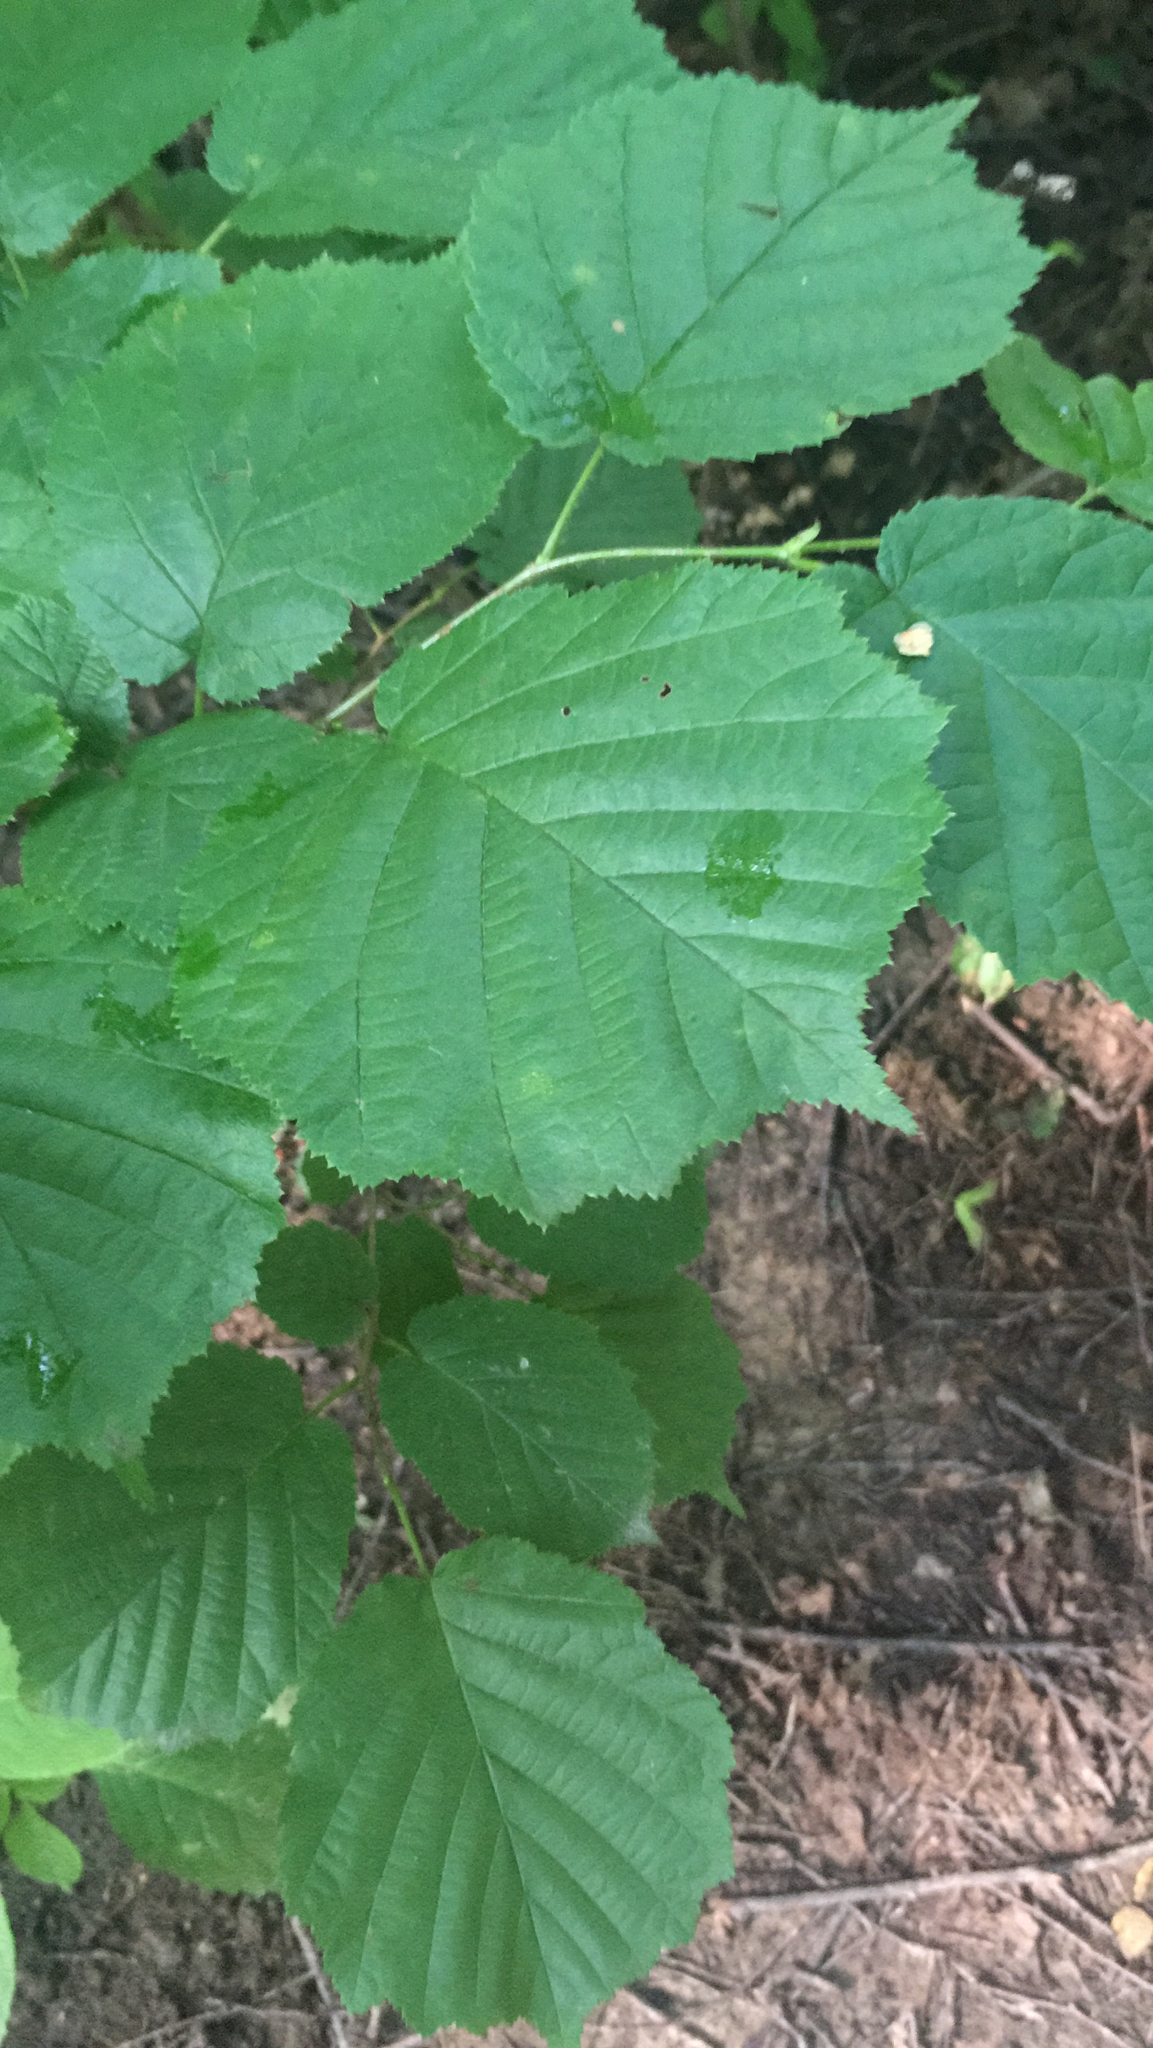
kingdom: Plantae
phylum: Tracheophyta
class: Magnoliopsida
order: Fagales
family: Betulaceae
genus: Corylus
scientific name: Corylus avellana
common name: European hazel
